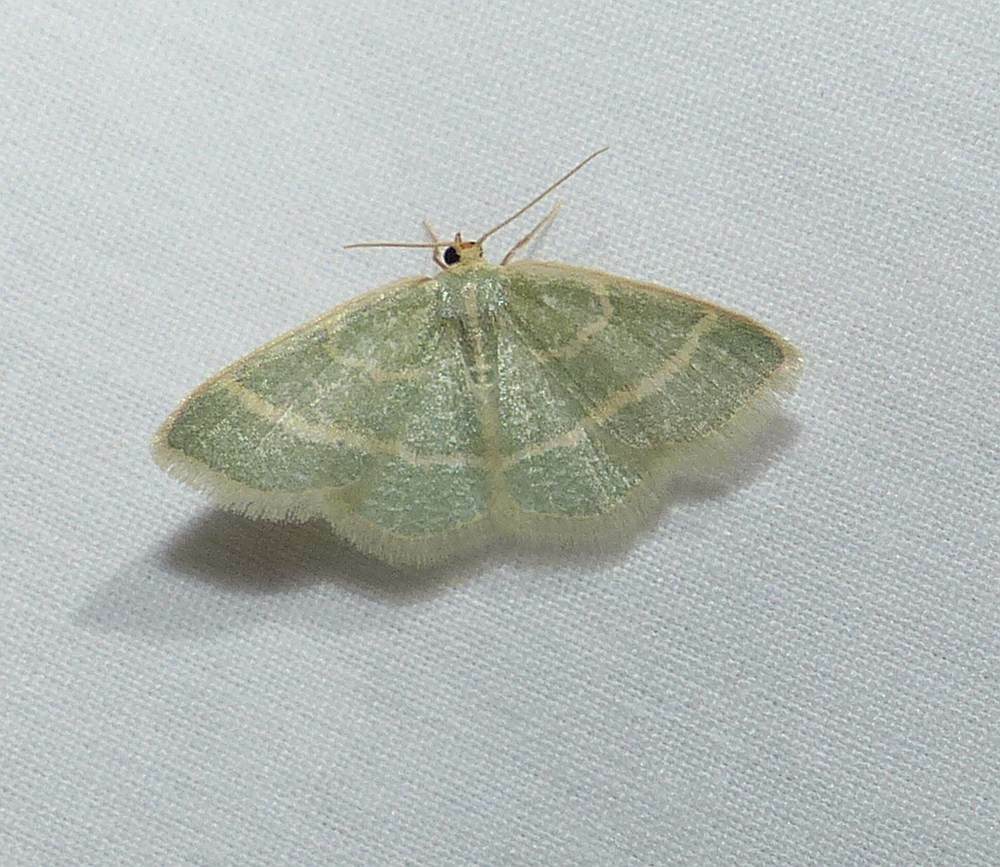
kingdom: Animalia
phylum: Arthropoda
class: Insecta
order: Lepidoptera
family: Geometridae
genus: Chlorochlamys
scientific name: Chlorochlamys chloroleucaria
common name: Blackberry looper
